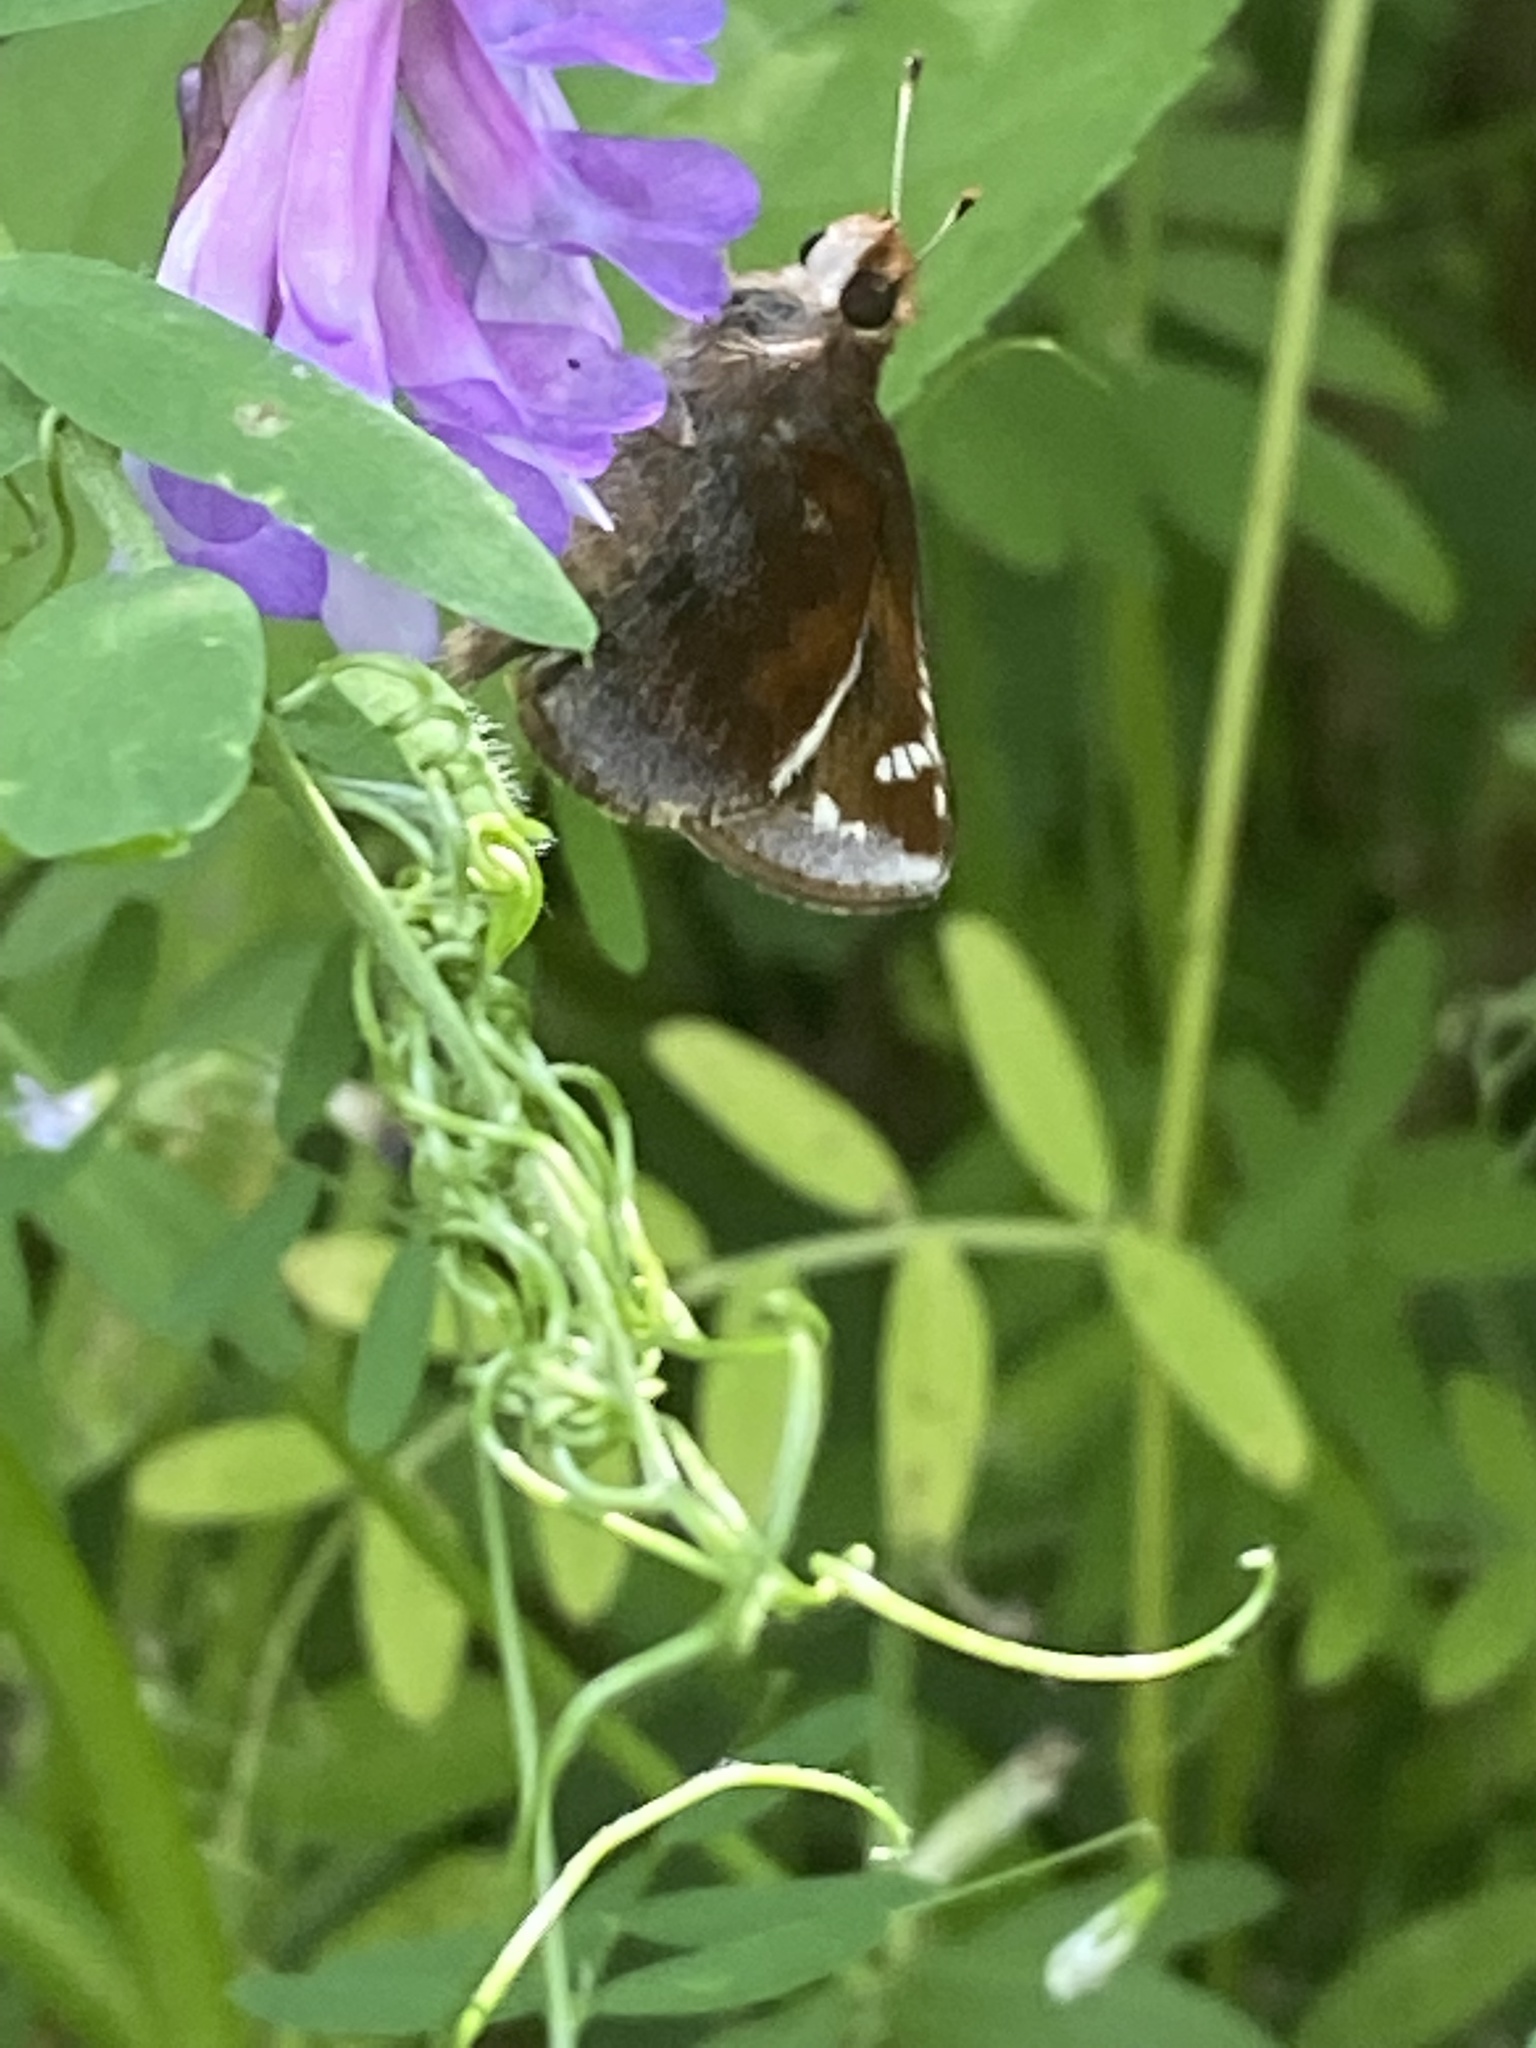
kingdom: Animalia
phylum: Arthropoda
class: Insecta
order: Lepidoptera
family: Hesperiidae
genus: Lon
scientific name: Lon zabulon
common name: Zabulon skipper
